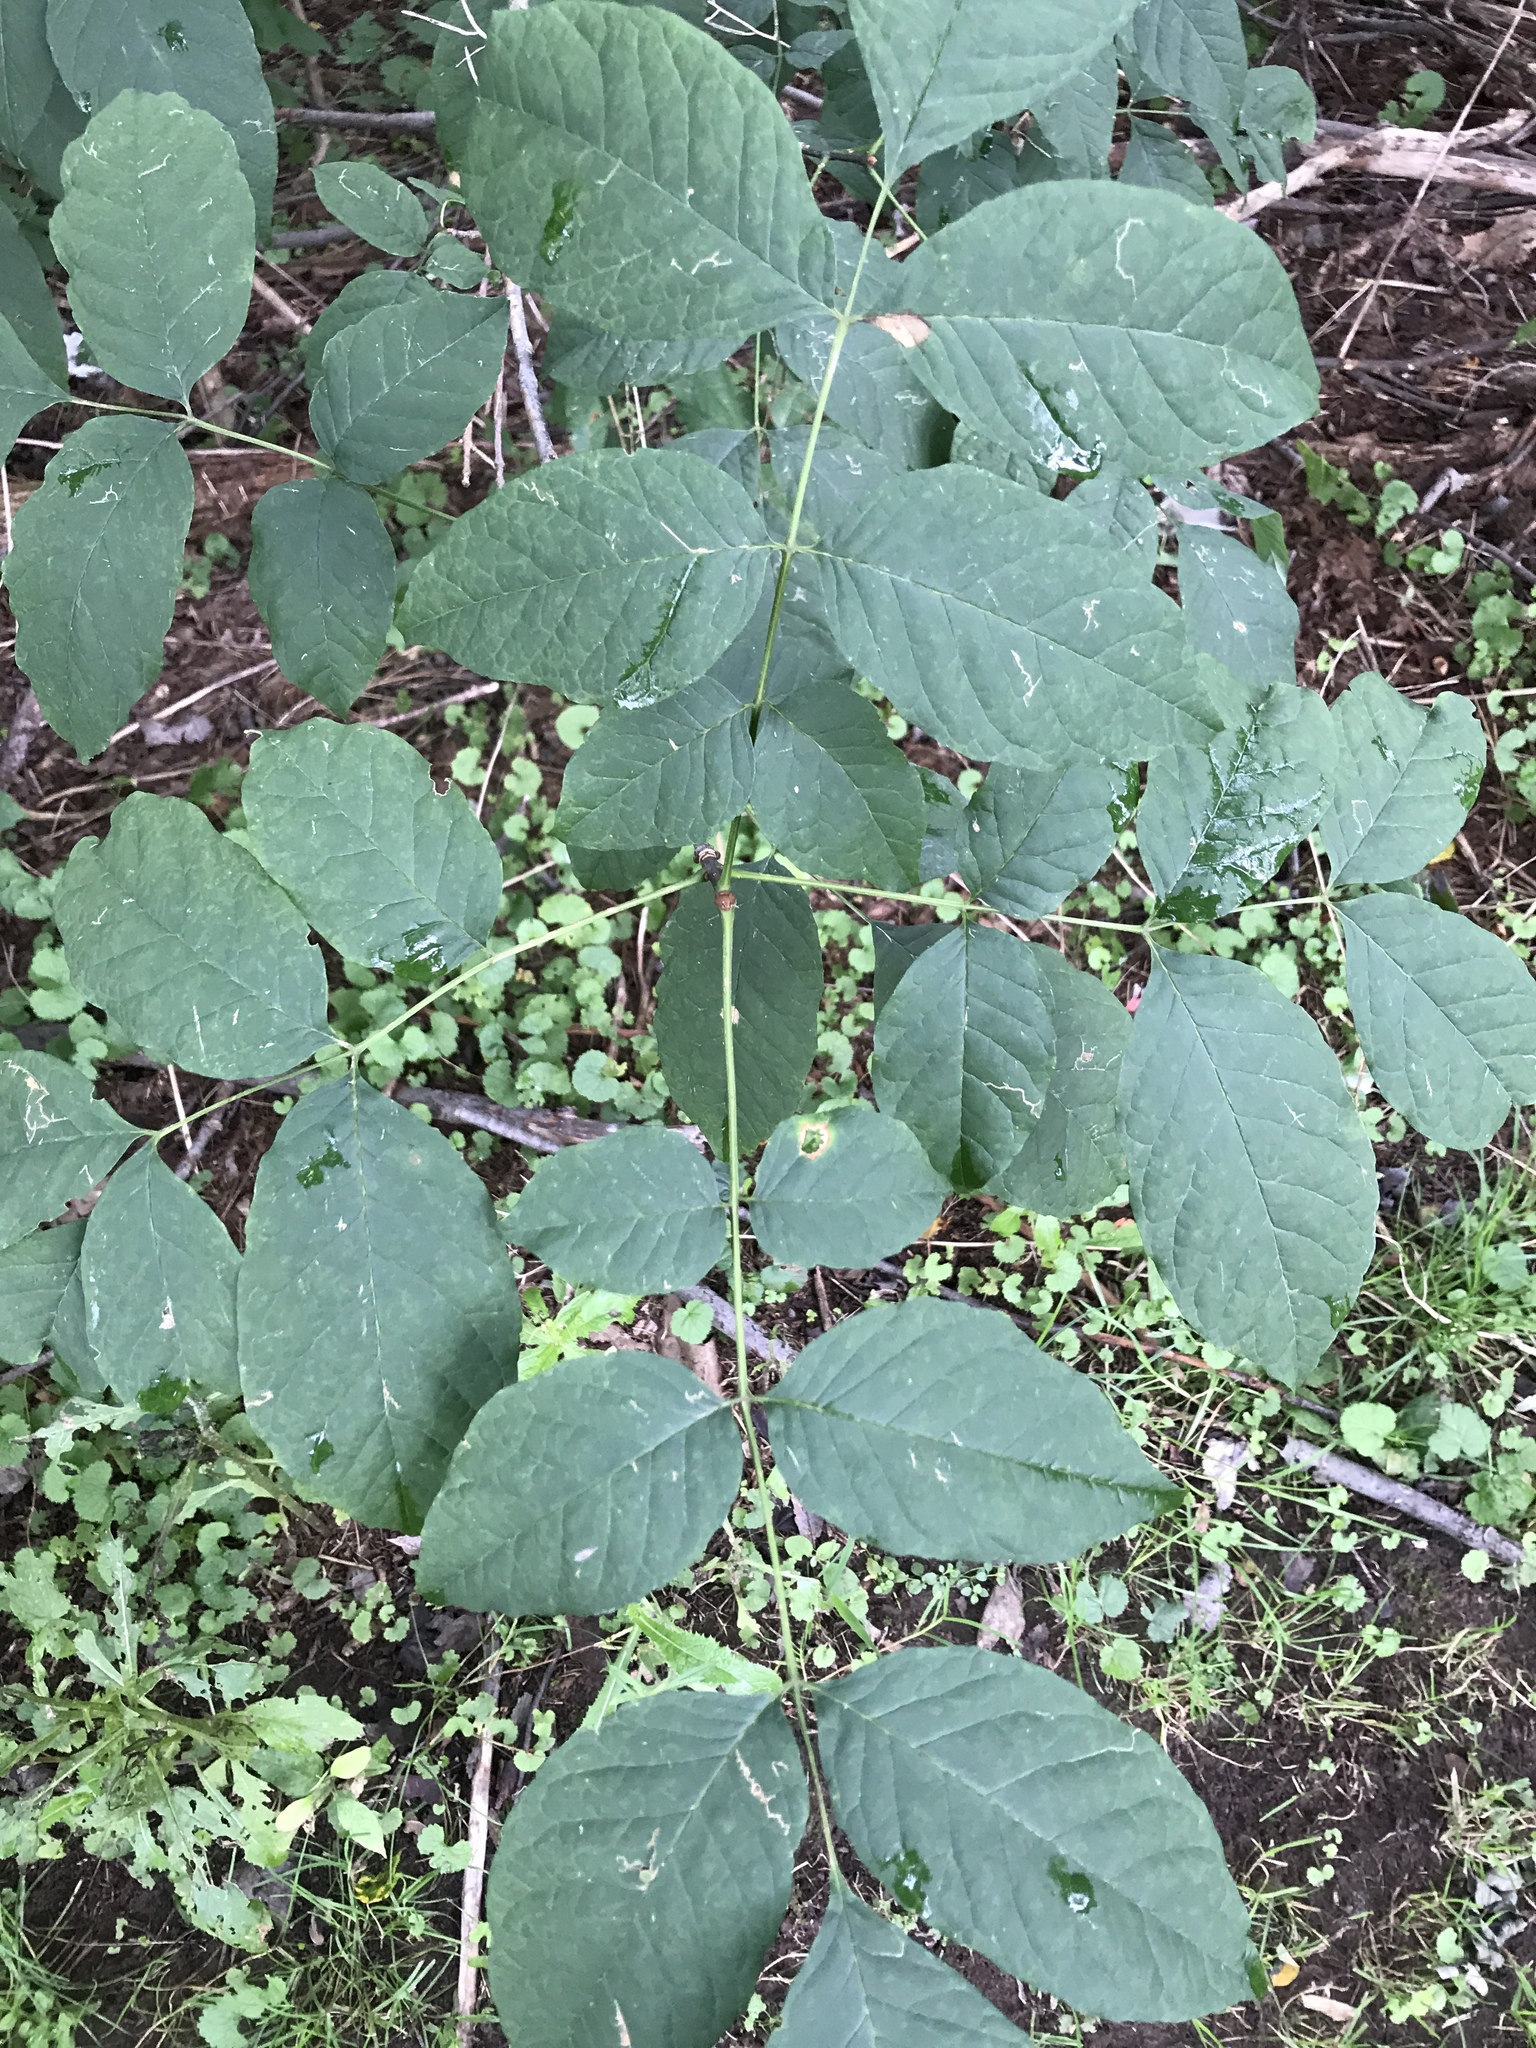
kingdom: Plantae
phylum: Tracheophyta
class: Magnoliopsida
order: Lamiales
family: Oleaceae
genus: Fraxinus
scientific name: Fraxinus americana
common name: White ash
